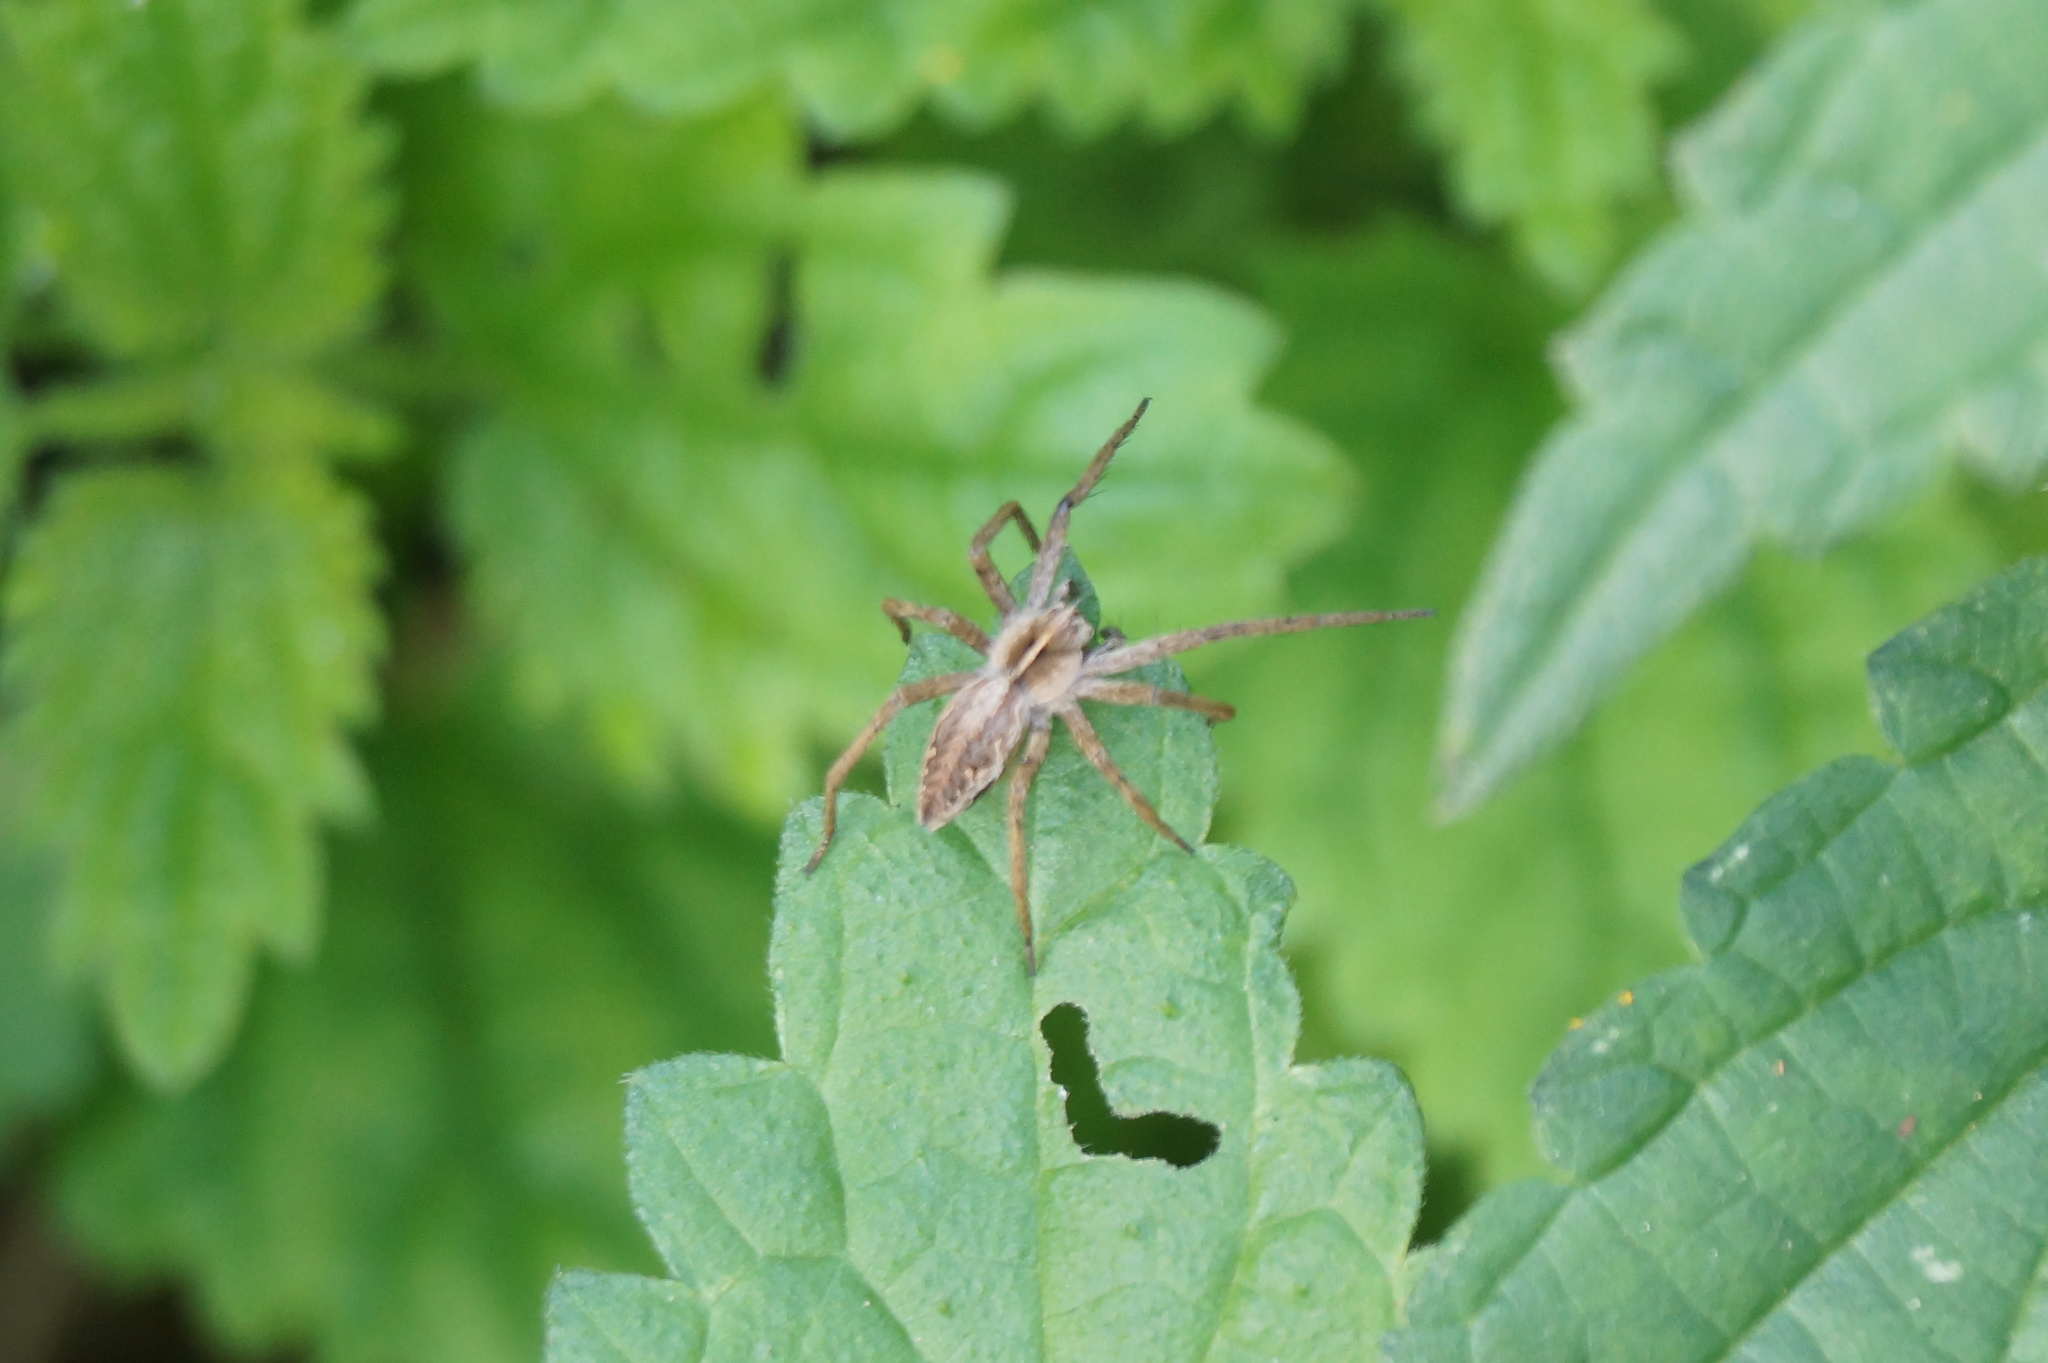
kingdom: Animalia
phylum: Arthropoda
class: Arachnida
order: Araneae
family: Pisauridae
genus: Pisaura
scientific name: Pisaura mirabilis
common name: Tent spider
